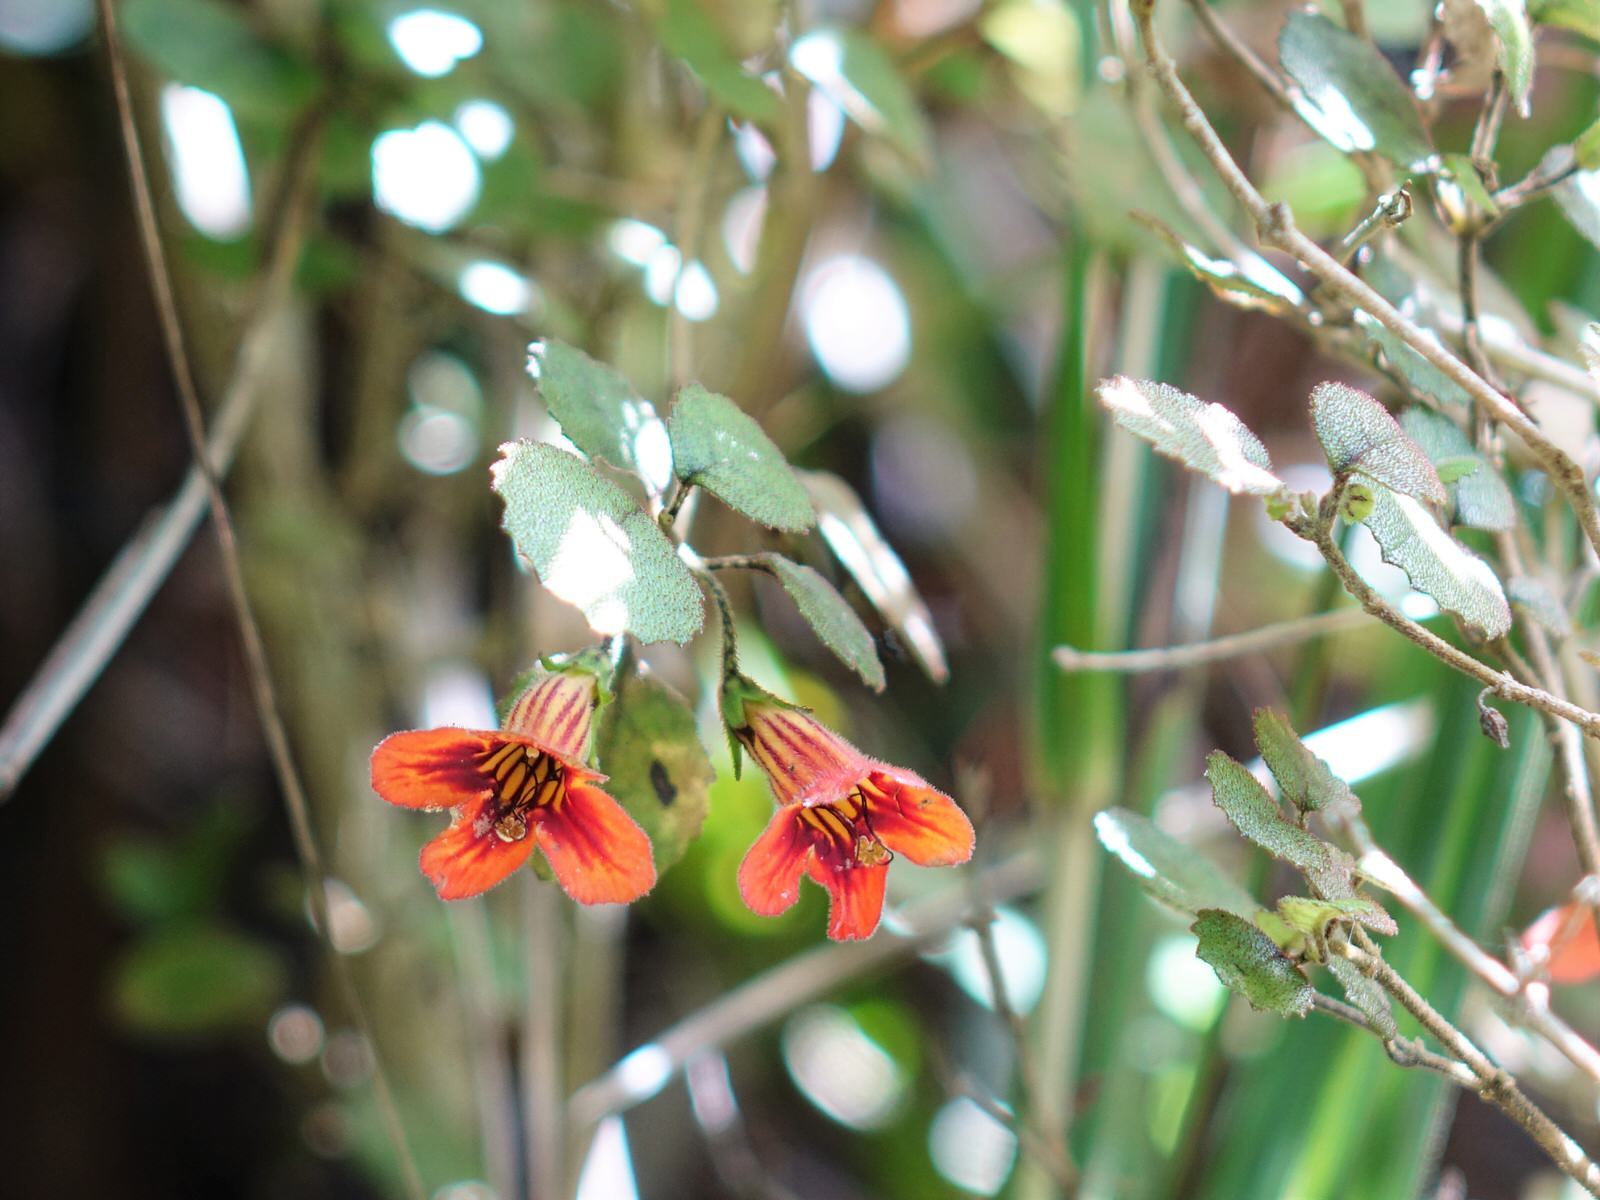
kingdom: Plantae
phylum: Tracheophyta
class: Magnoliopsida
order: Lamiales
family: Gesneriaceae
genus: Rhabdothamnus
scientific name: Rhabdothamnus solandri
